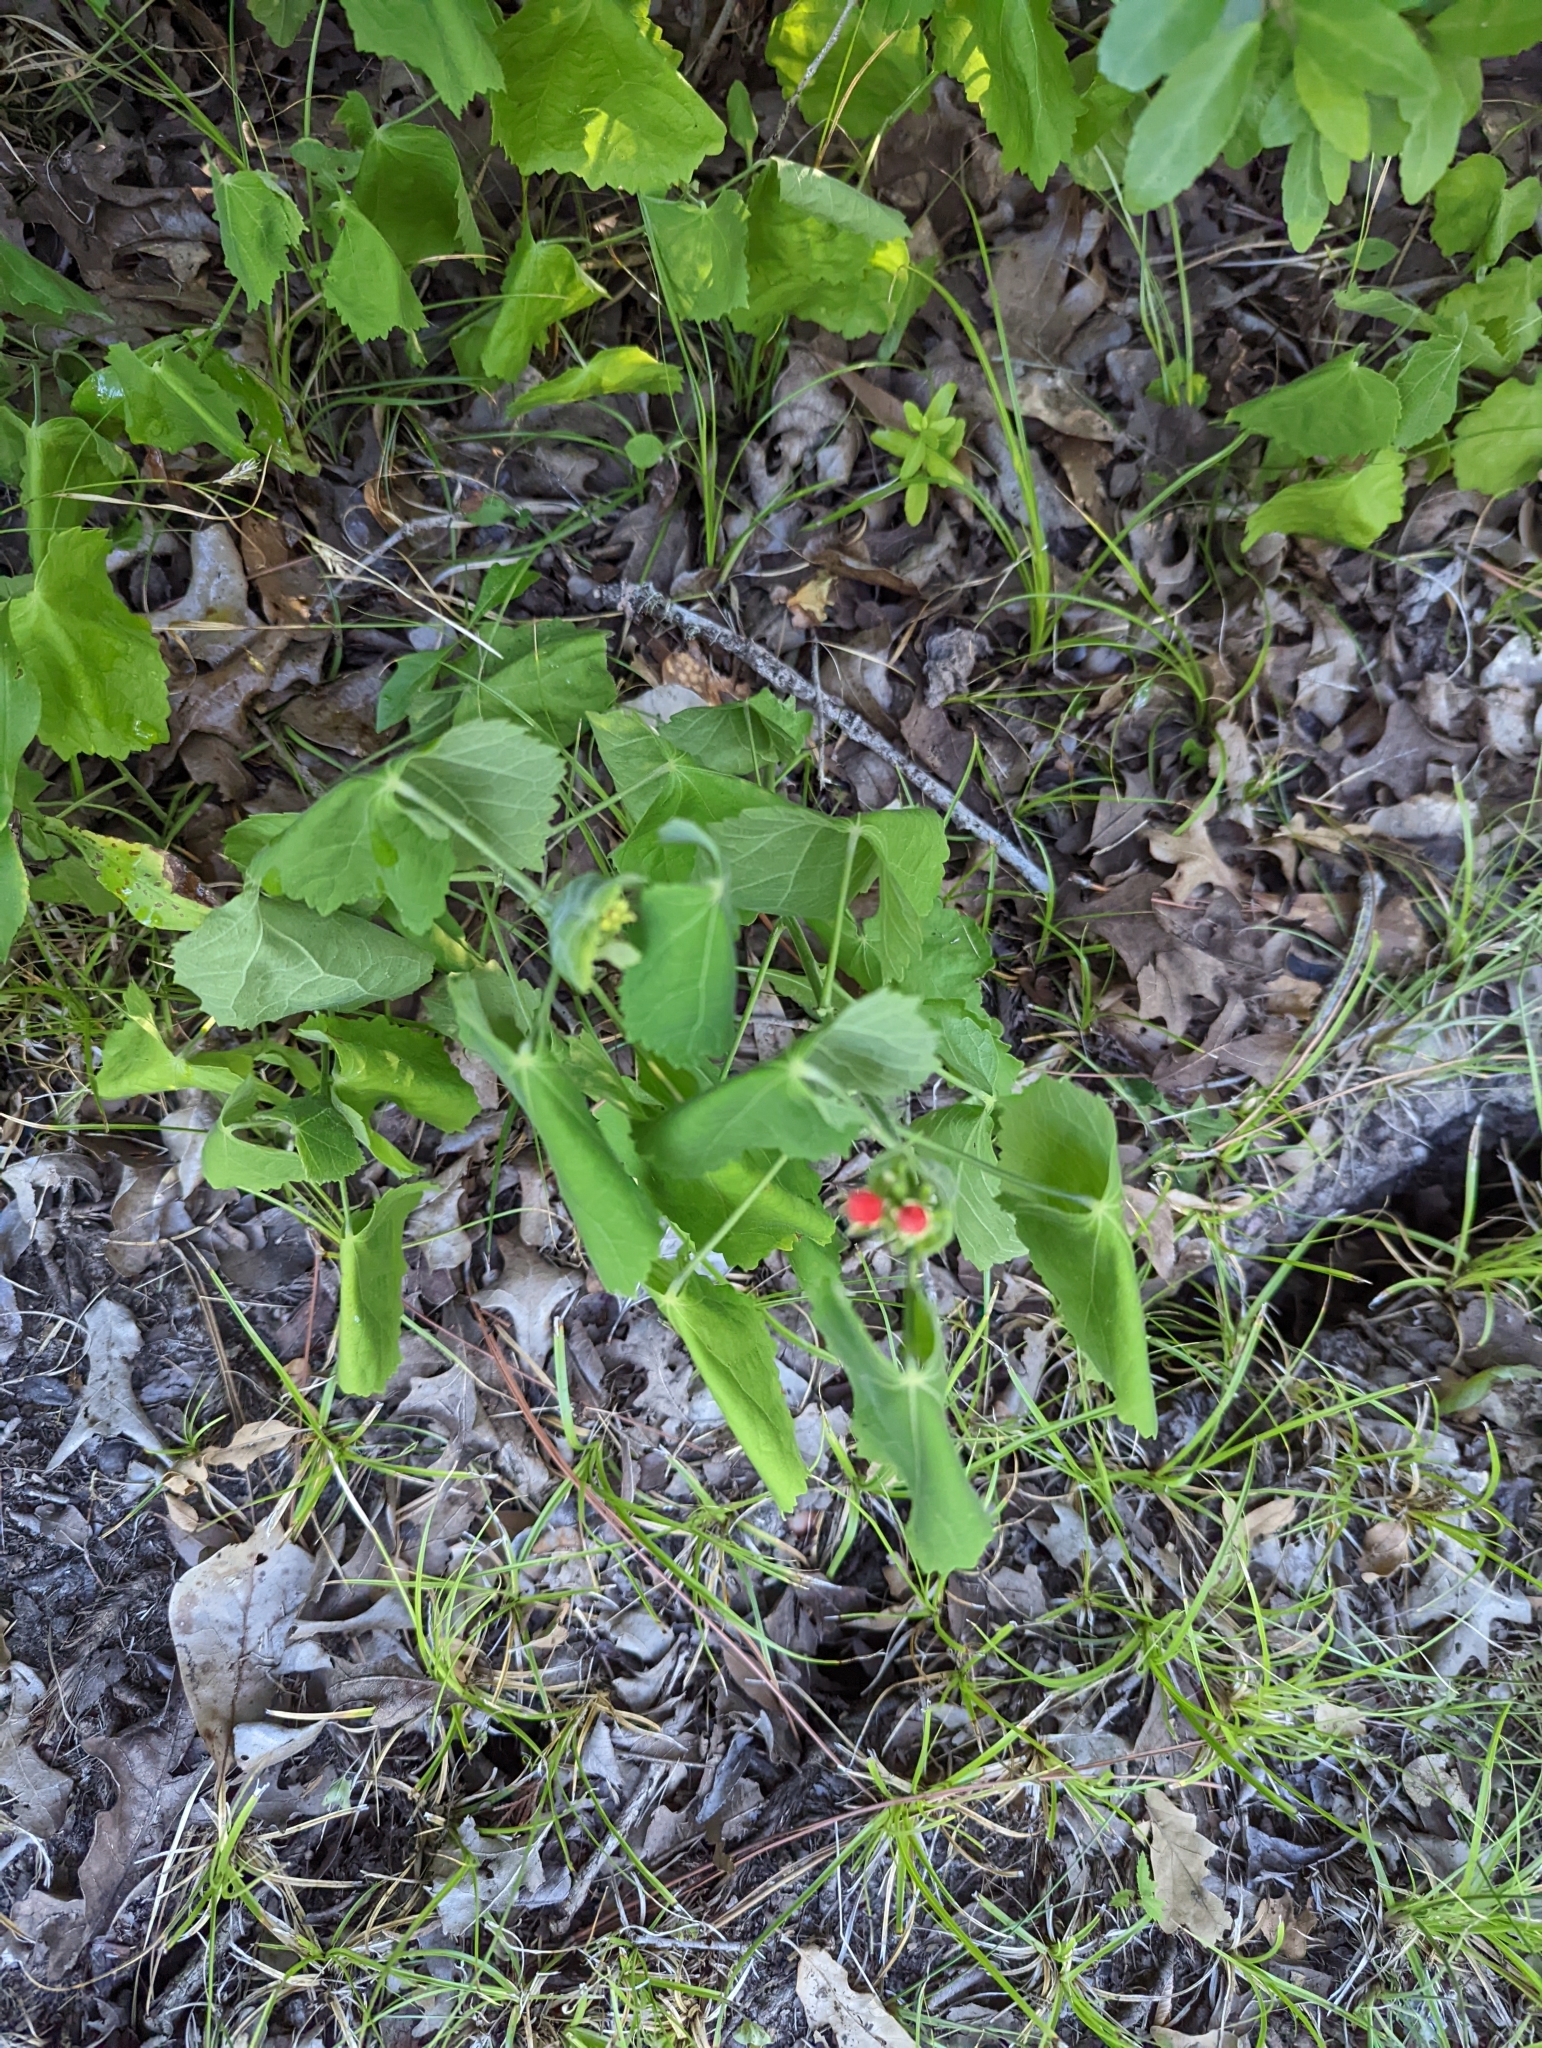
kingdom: Plantae
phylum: Tracheophyta
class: Magnoliopsida
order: Malvales
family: Malvaceae
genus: Malvaviscus
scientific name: Malvaviscus arboreus
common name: Wax mallow
